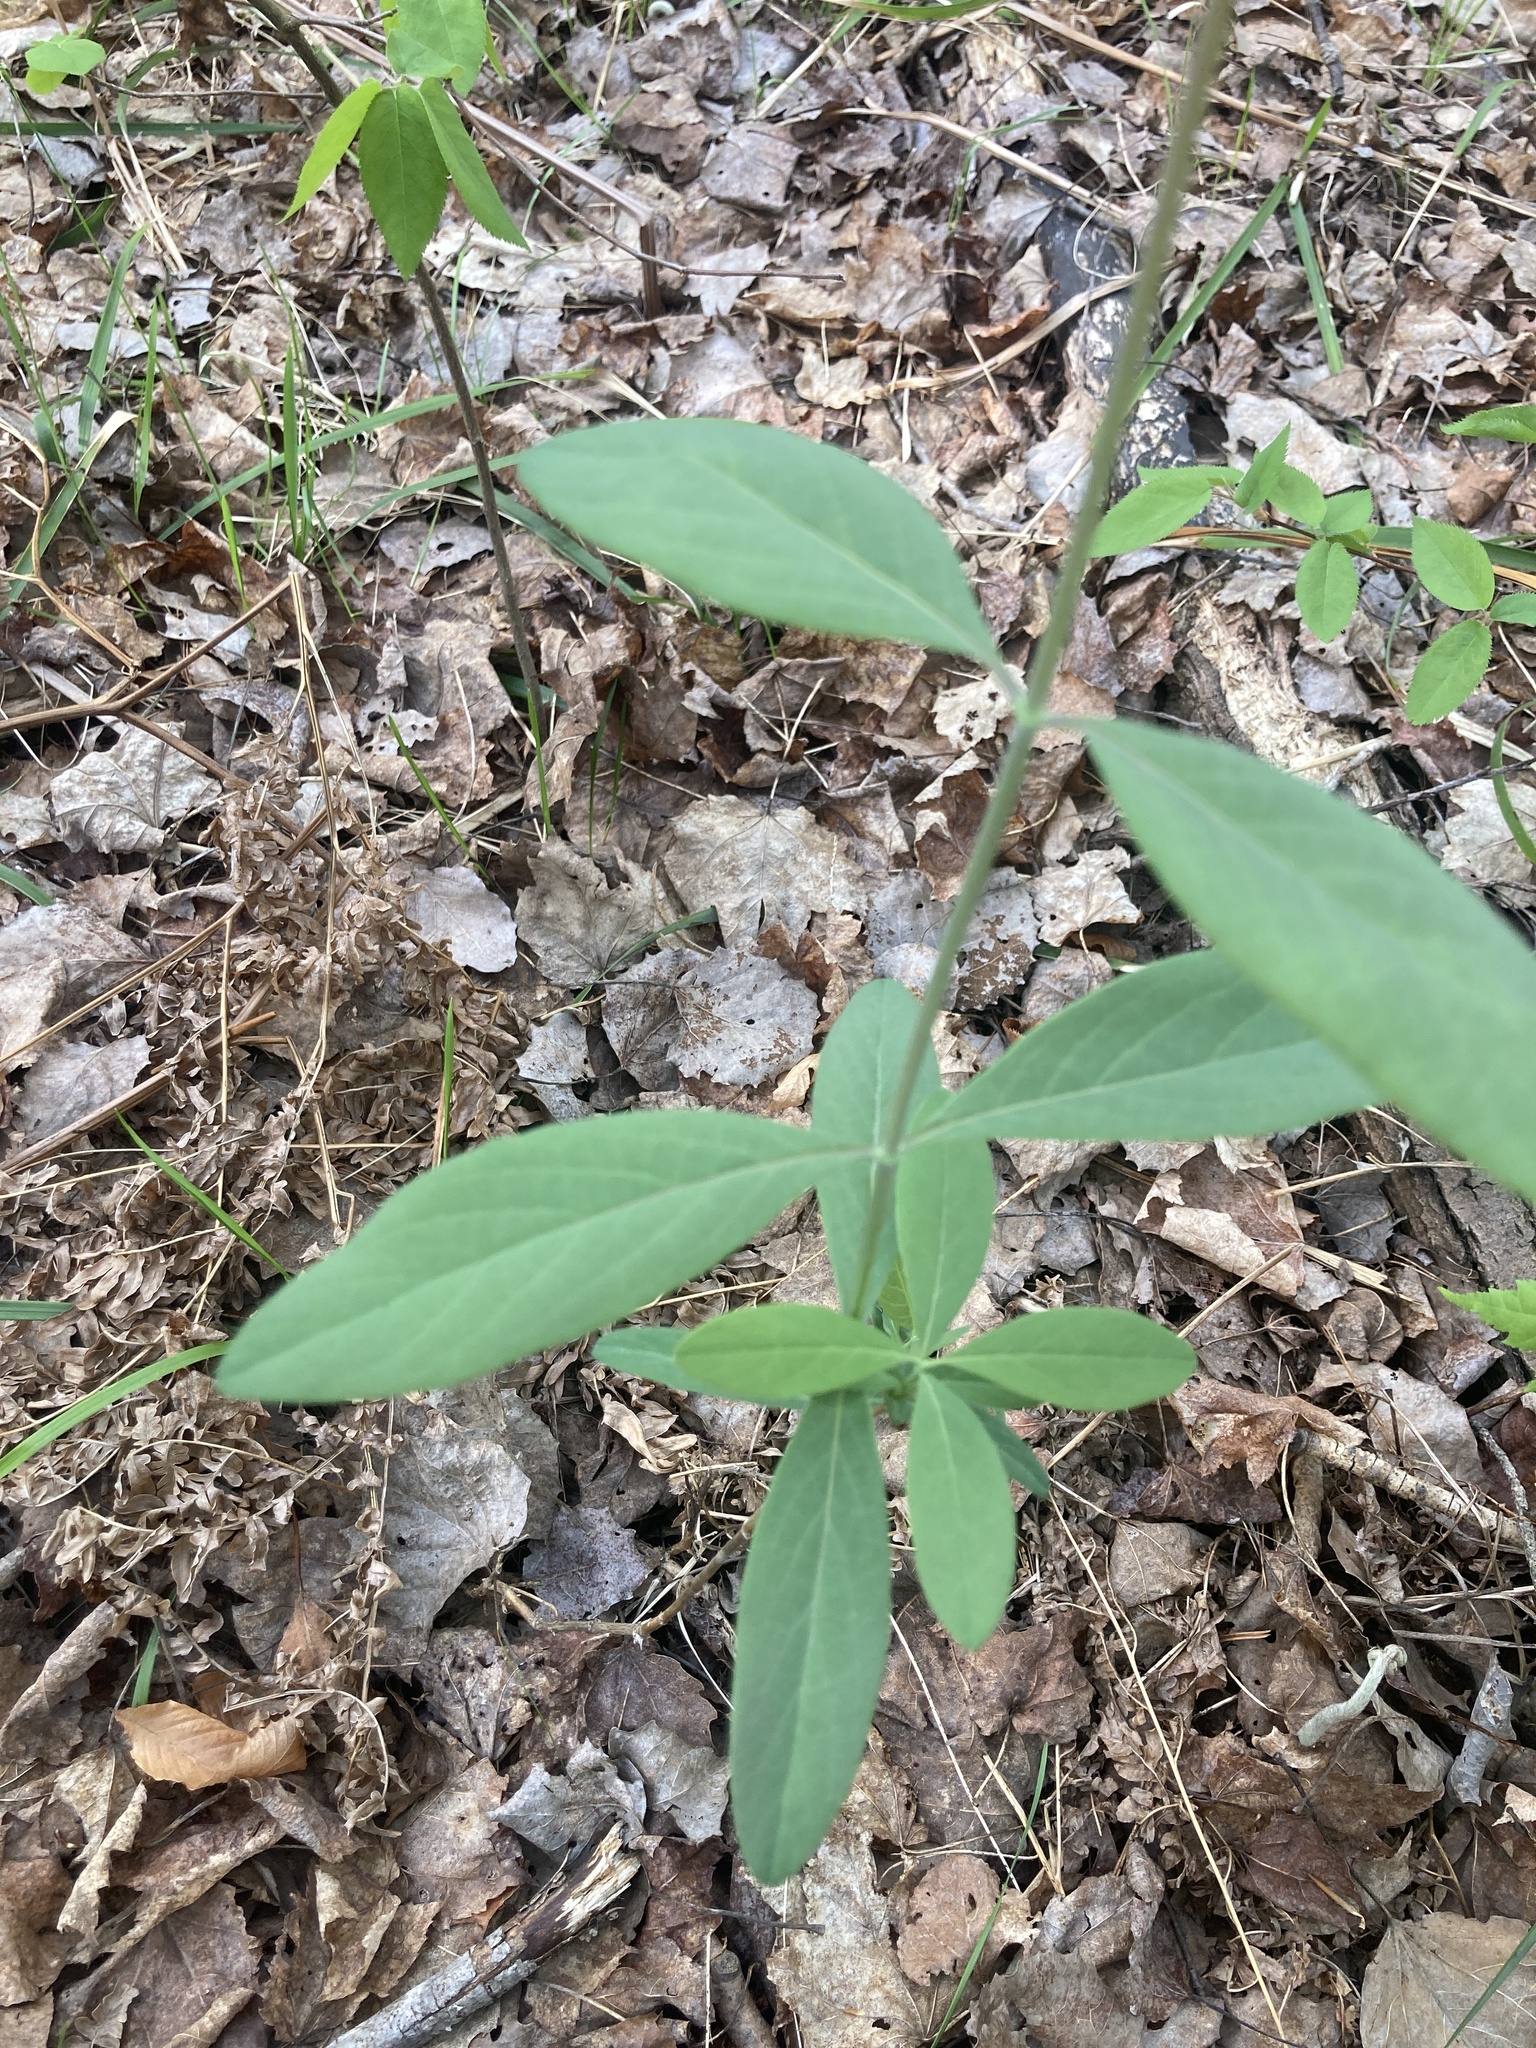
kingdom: Plantae
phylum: Tracheophyta
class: Magnoliopsida
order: Dipsacales
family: Caprifoliaceae
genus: Lonicera
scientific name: Lonicera dioica
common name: Limber honeysuckle
